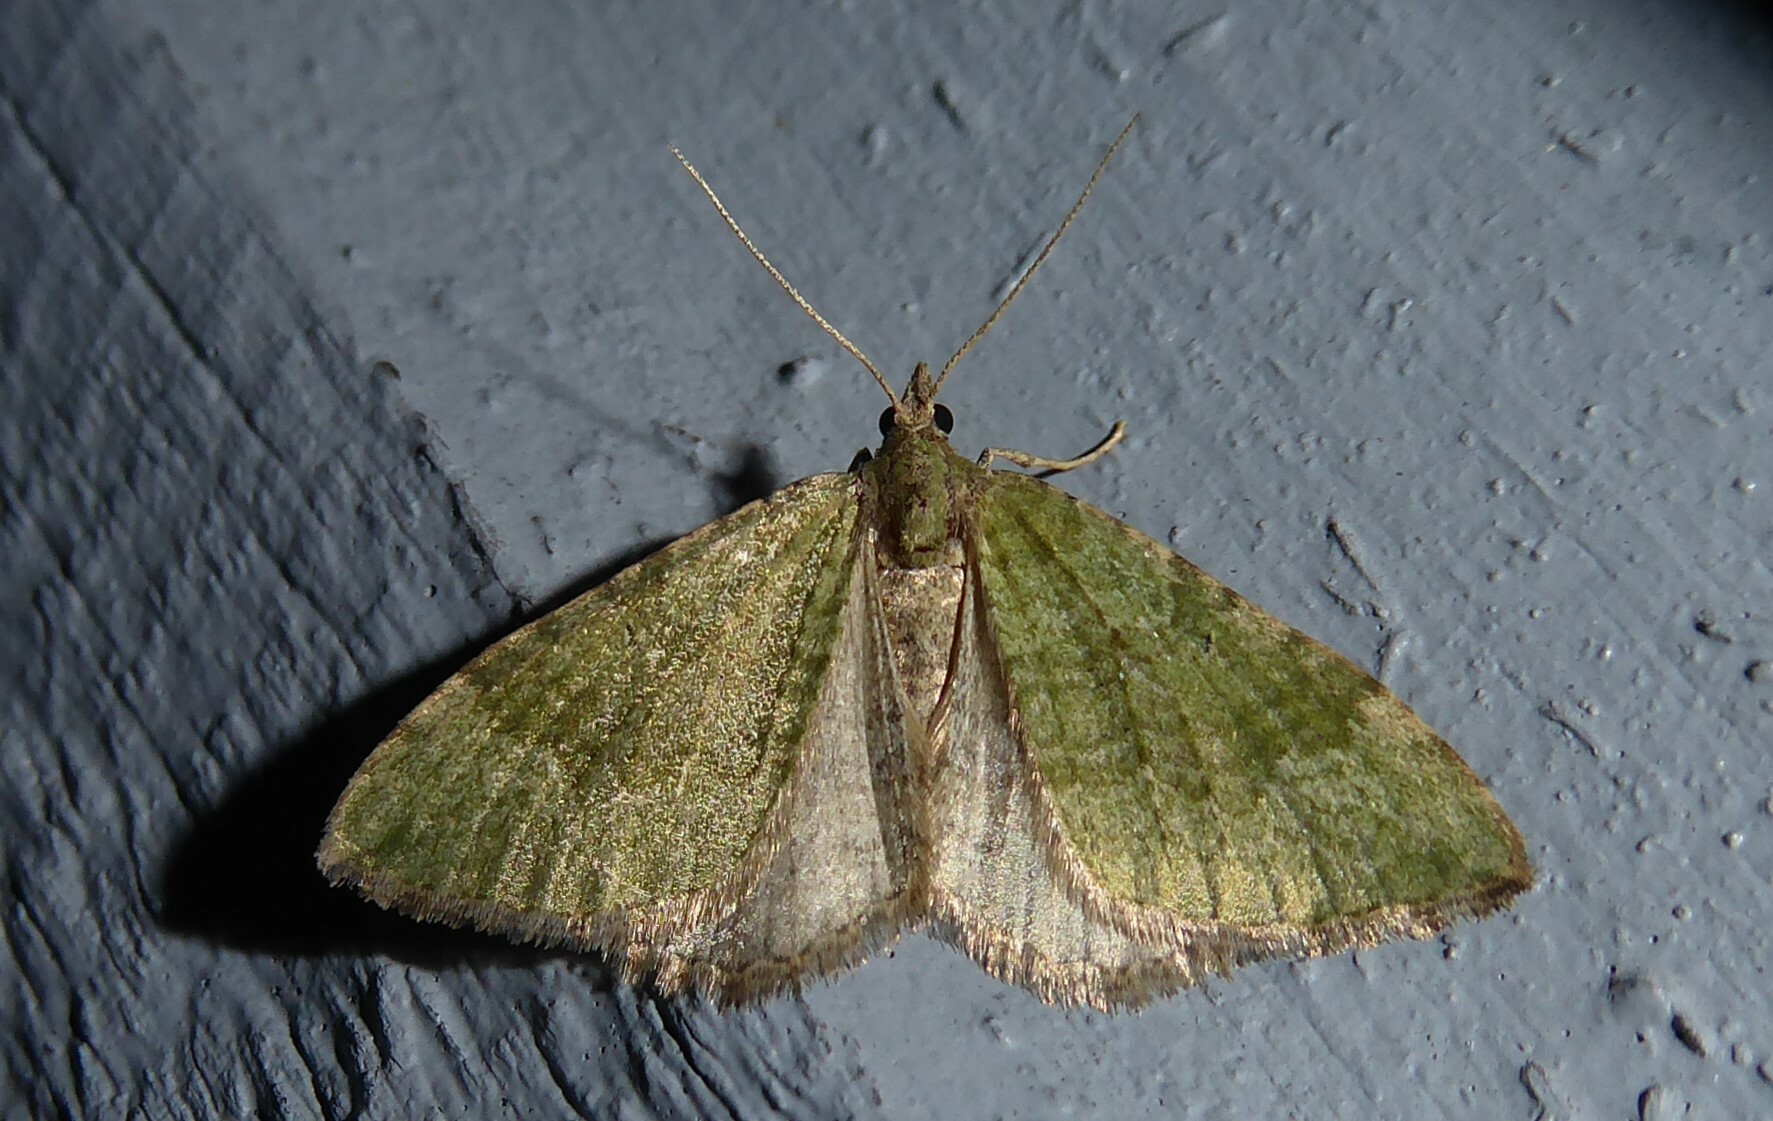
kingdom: Animalia
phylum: Arthropoda
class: Insecta
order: Lepidoptera
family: Geometridae
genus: Epyaxa
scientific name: Epyaxa rosearia
